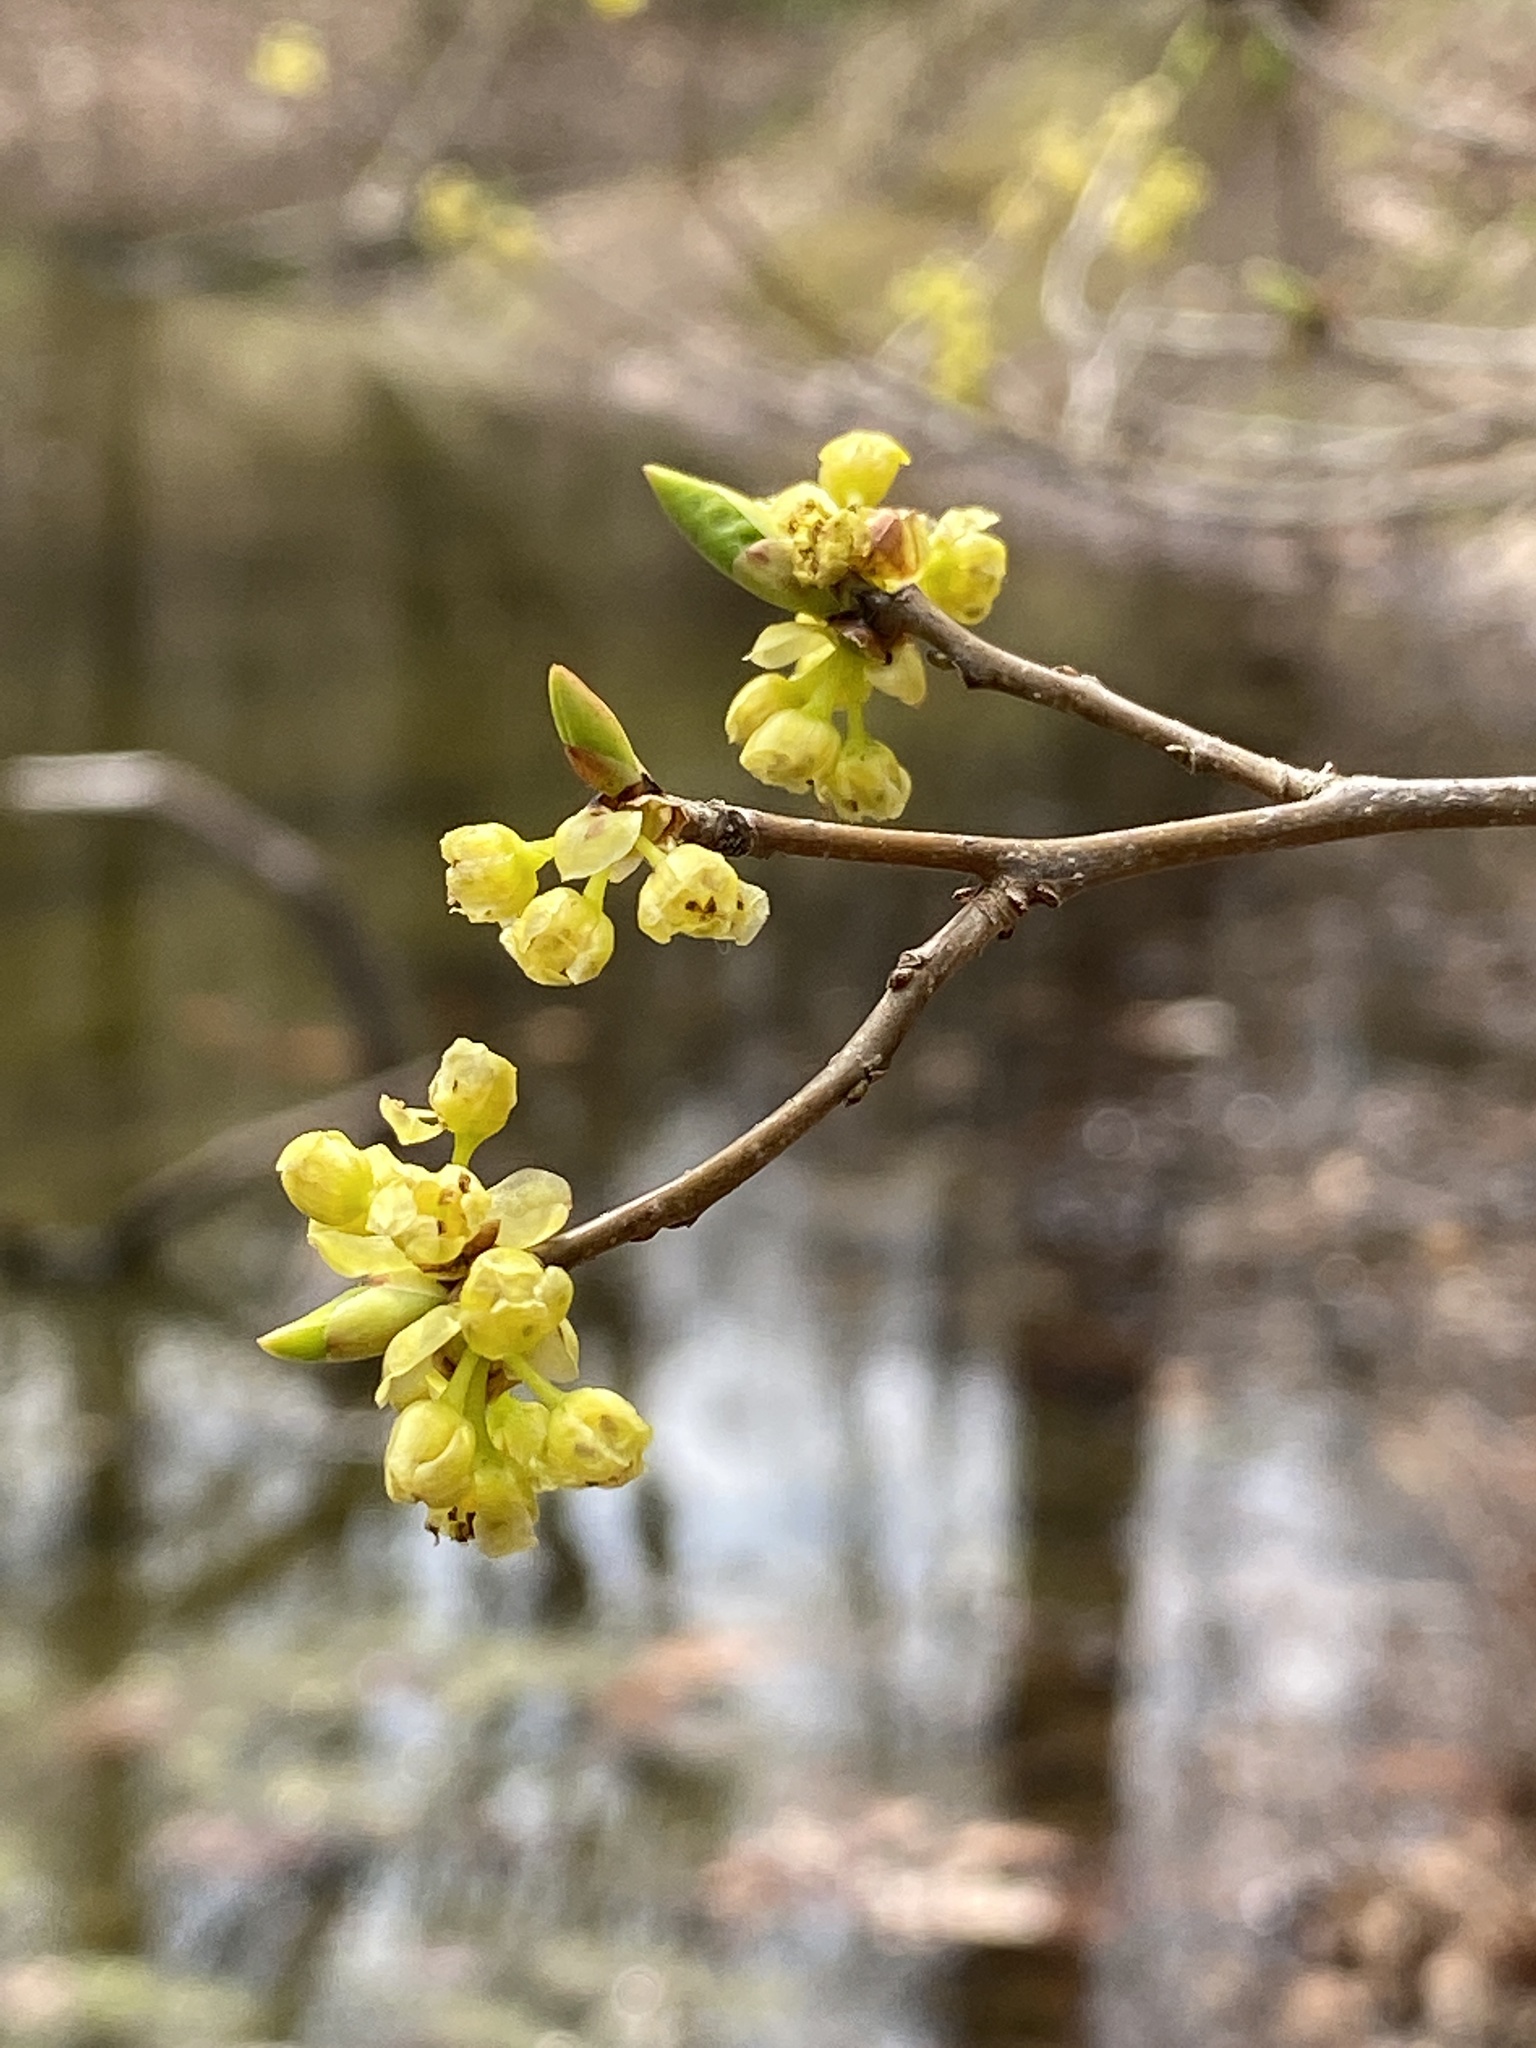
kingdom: Plantae
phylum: Tracheophyta
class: Magnoliopsida
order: Laurales
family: Lauraceae
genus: Lindera
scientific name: Lindera benzoin
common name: Spicebush
